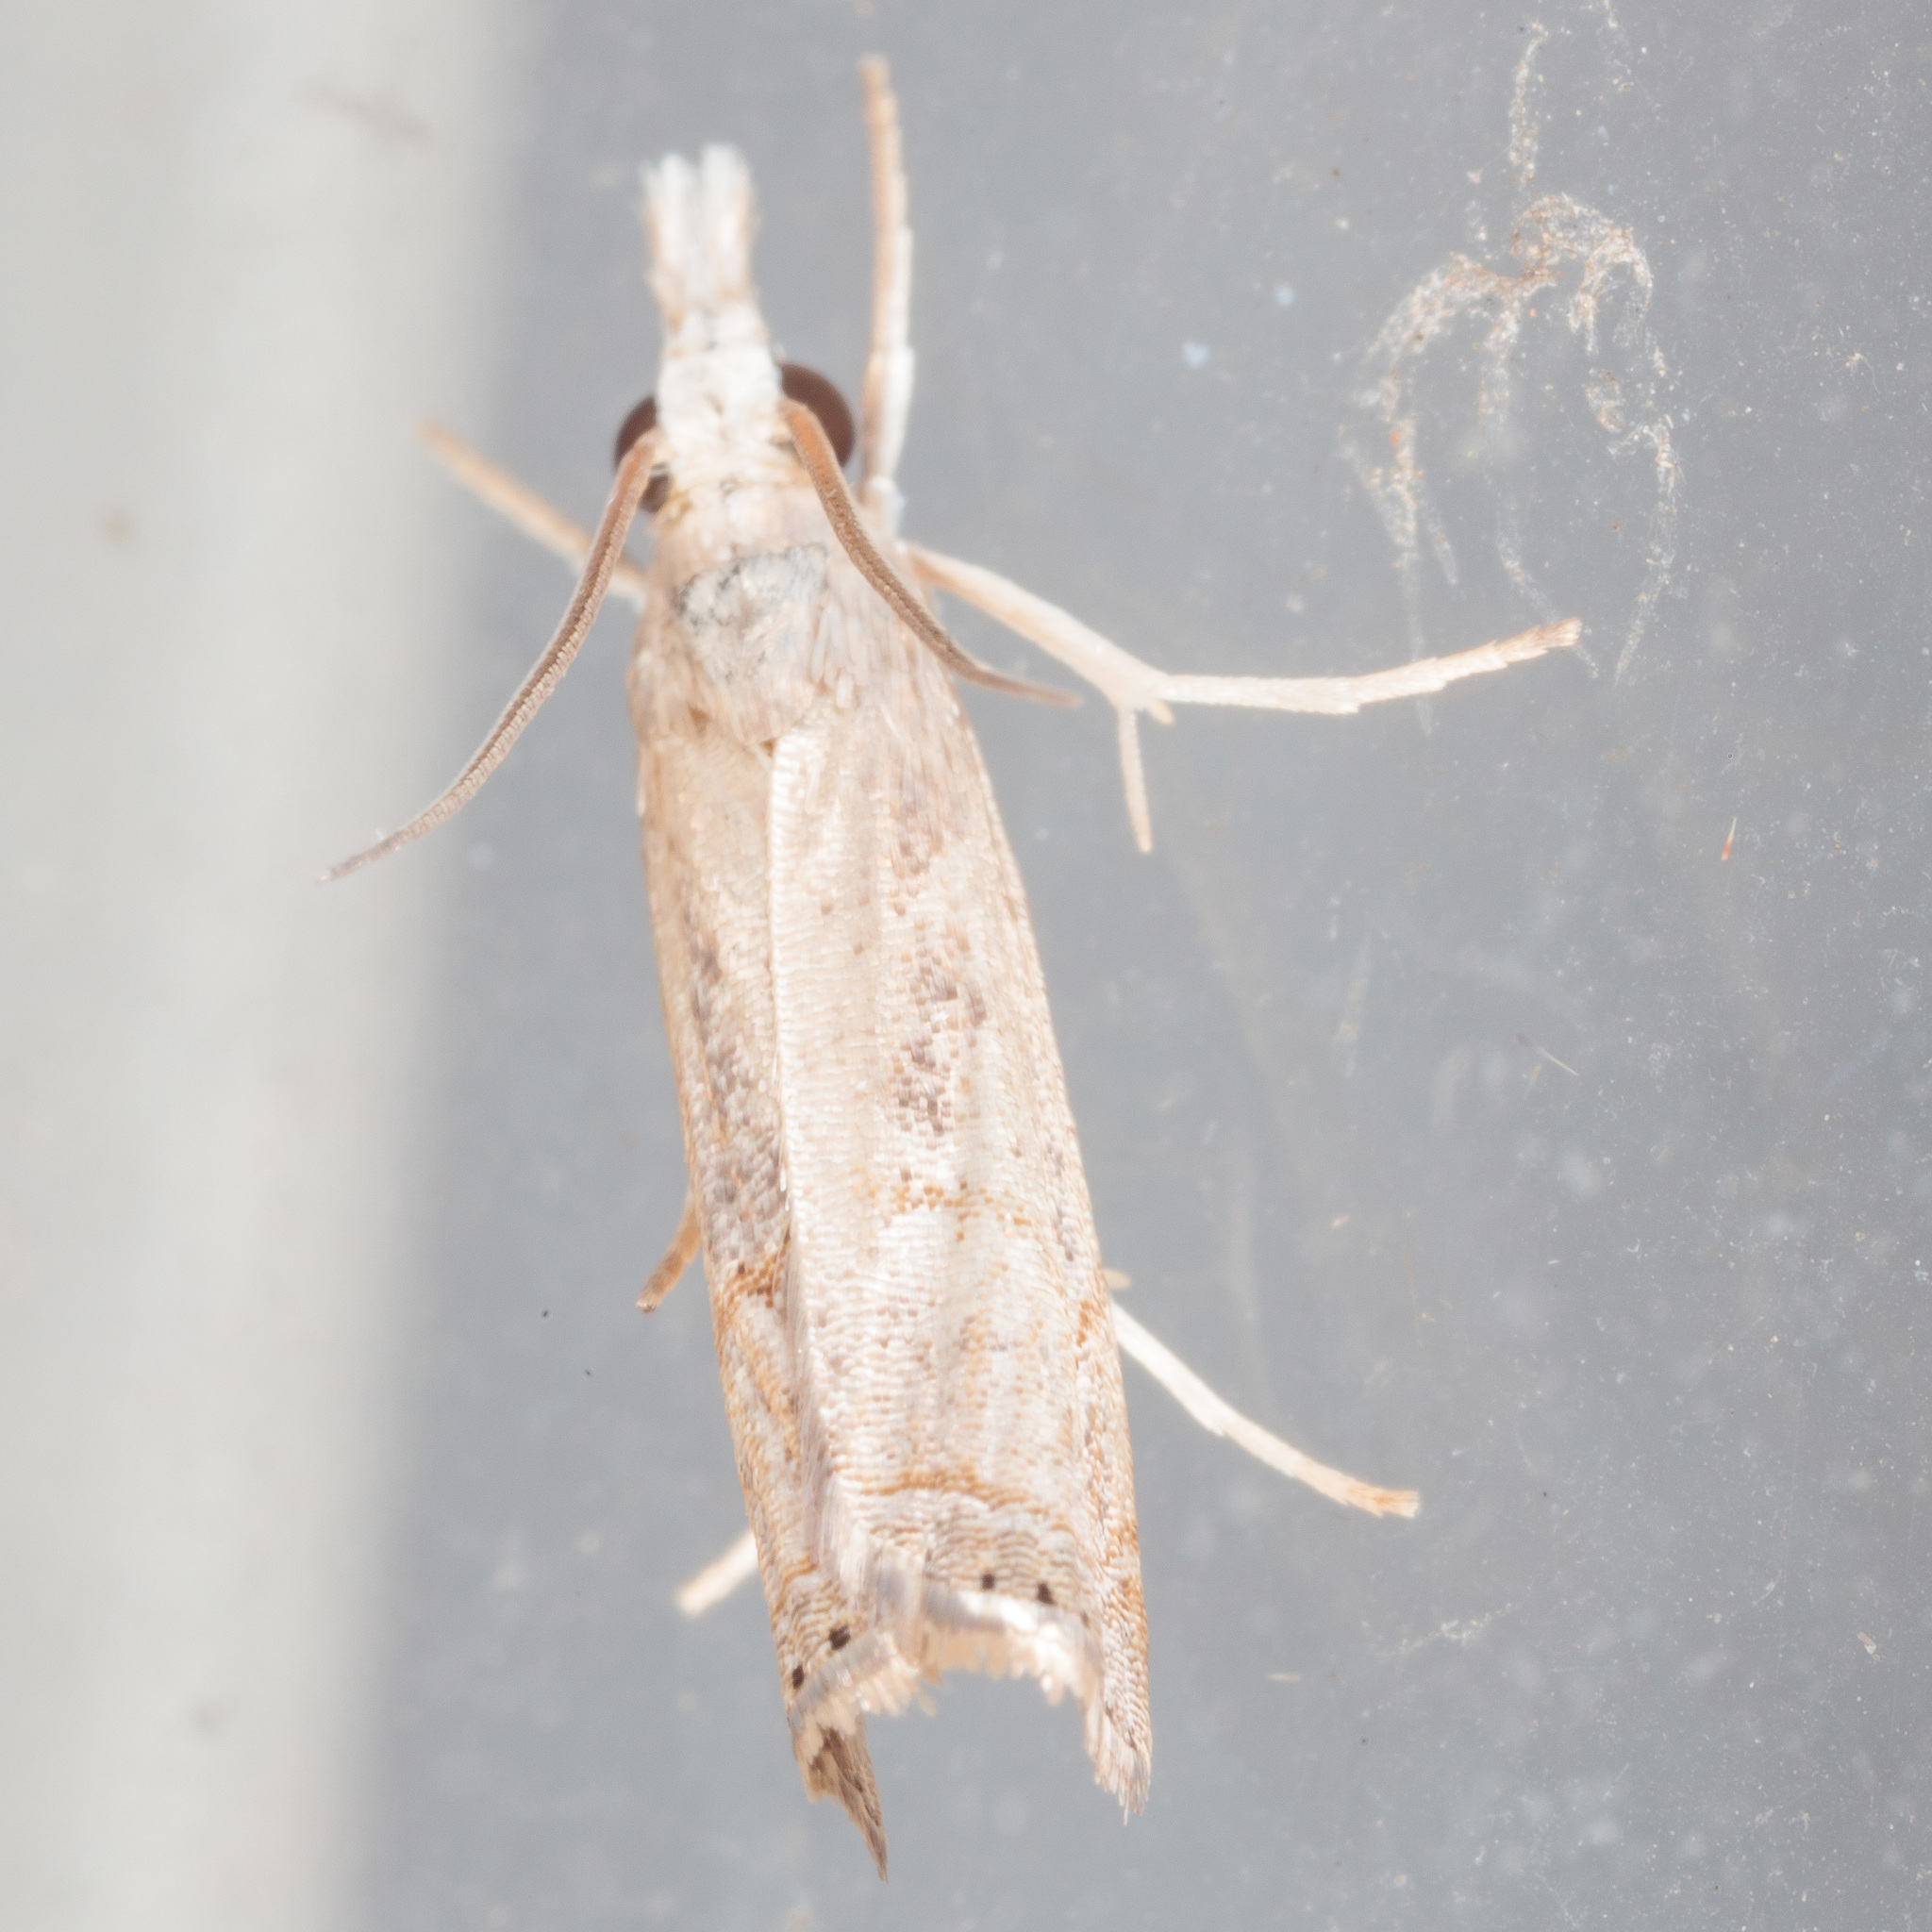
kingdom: Animalia
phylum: Arthropoda
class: Insecta
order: Lepidoptera
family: Crambidae
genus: Parapediasia
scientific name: Parapediasia teterellus
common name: Bluegrass webworm moth
